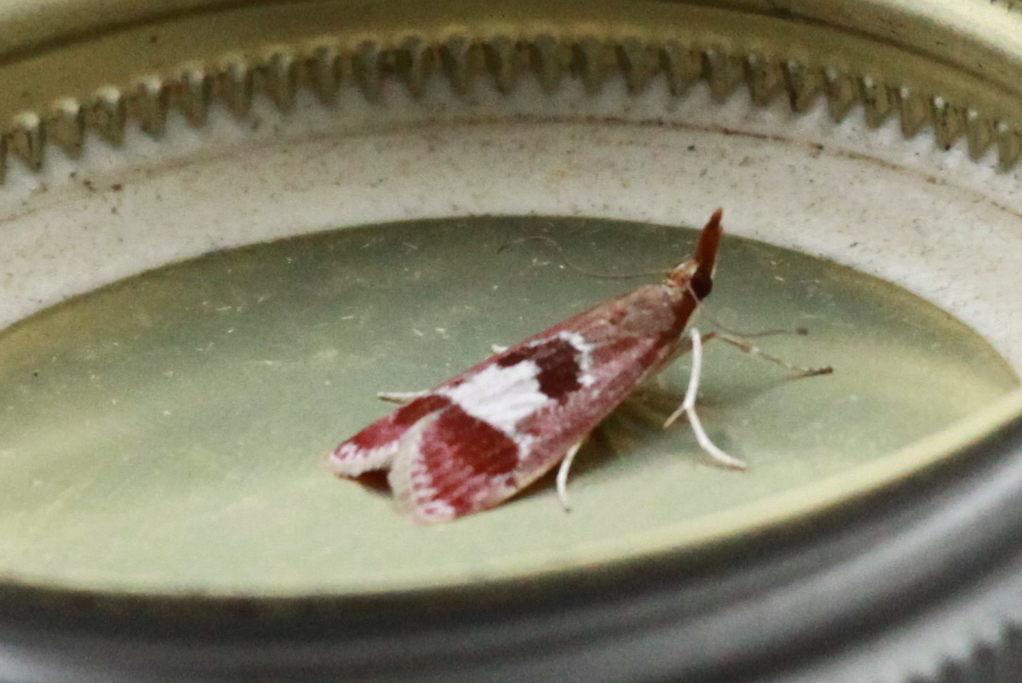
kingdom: Animalia
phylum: Arthropoda
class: Insecta
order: Lepidoptera
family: Crambidae
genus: Syntonarcha
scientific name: Syntonarcha vulnerata
